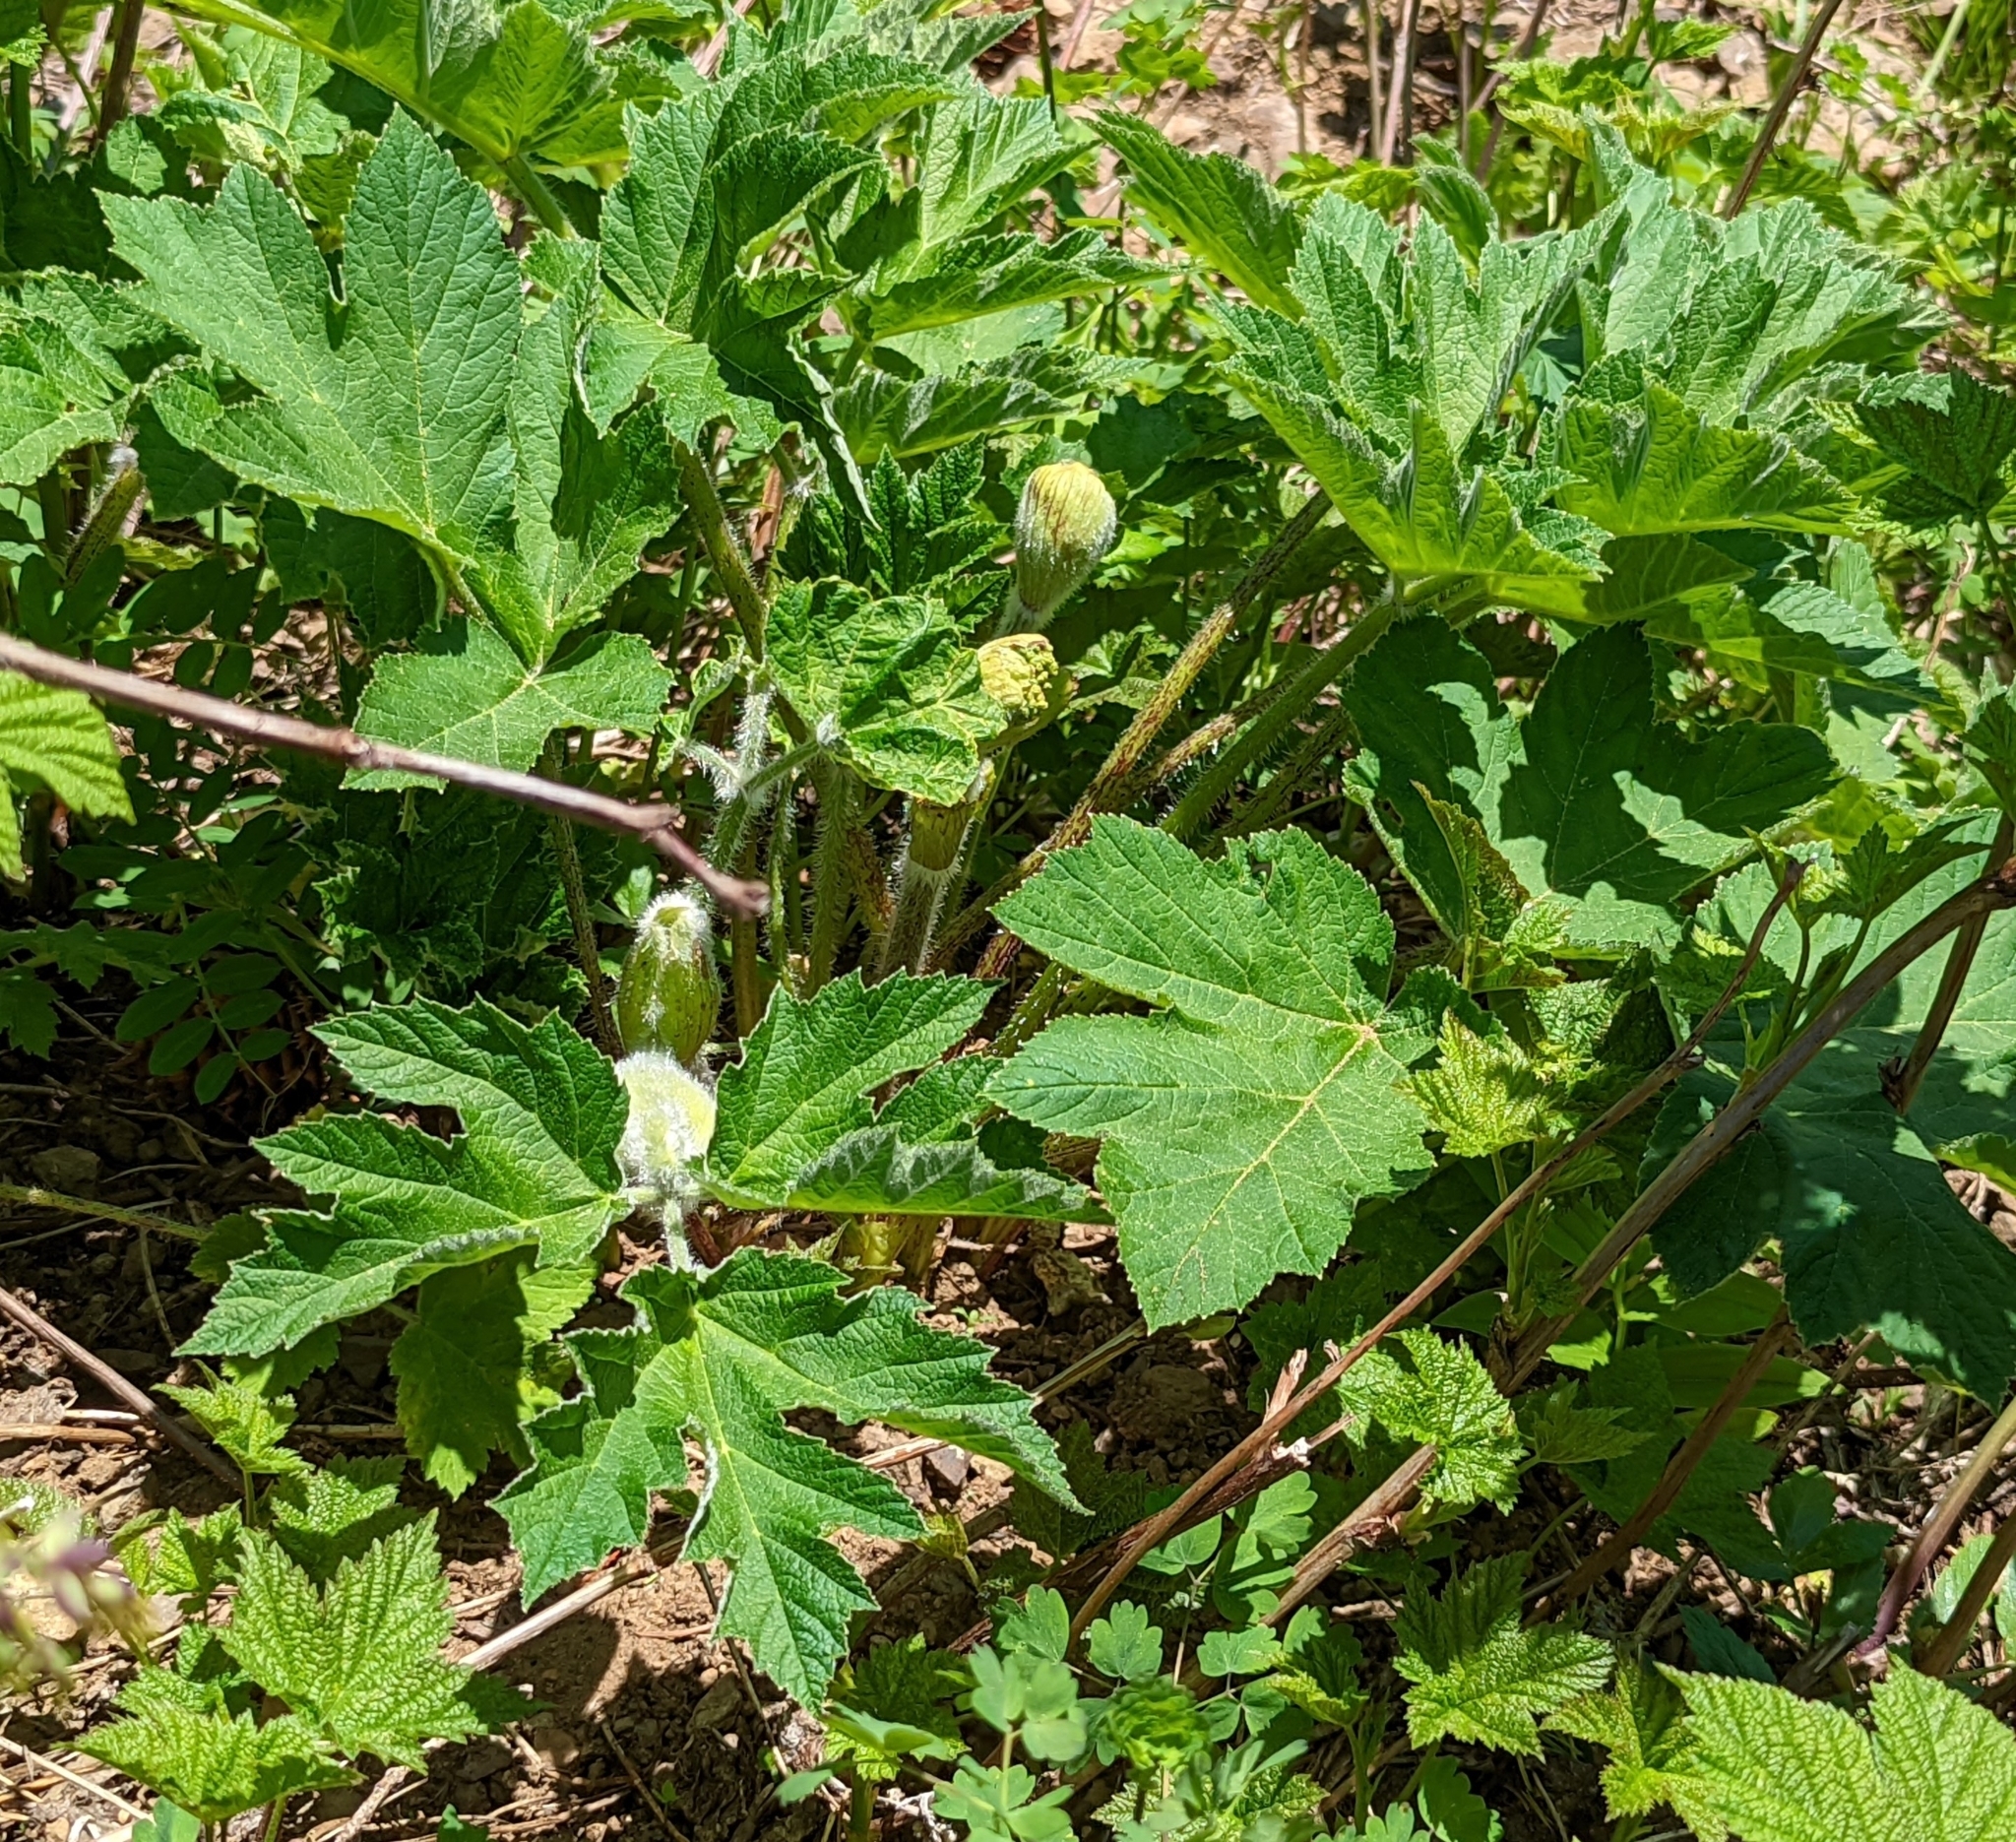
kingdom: Plantae
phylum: Tracheophyta
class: Magnoliopsida
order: Apiales
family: Apiaceae
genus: Heracleum
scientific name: Heracleum maximum
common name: American cow parsnip
